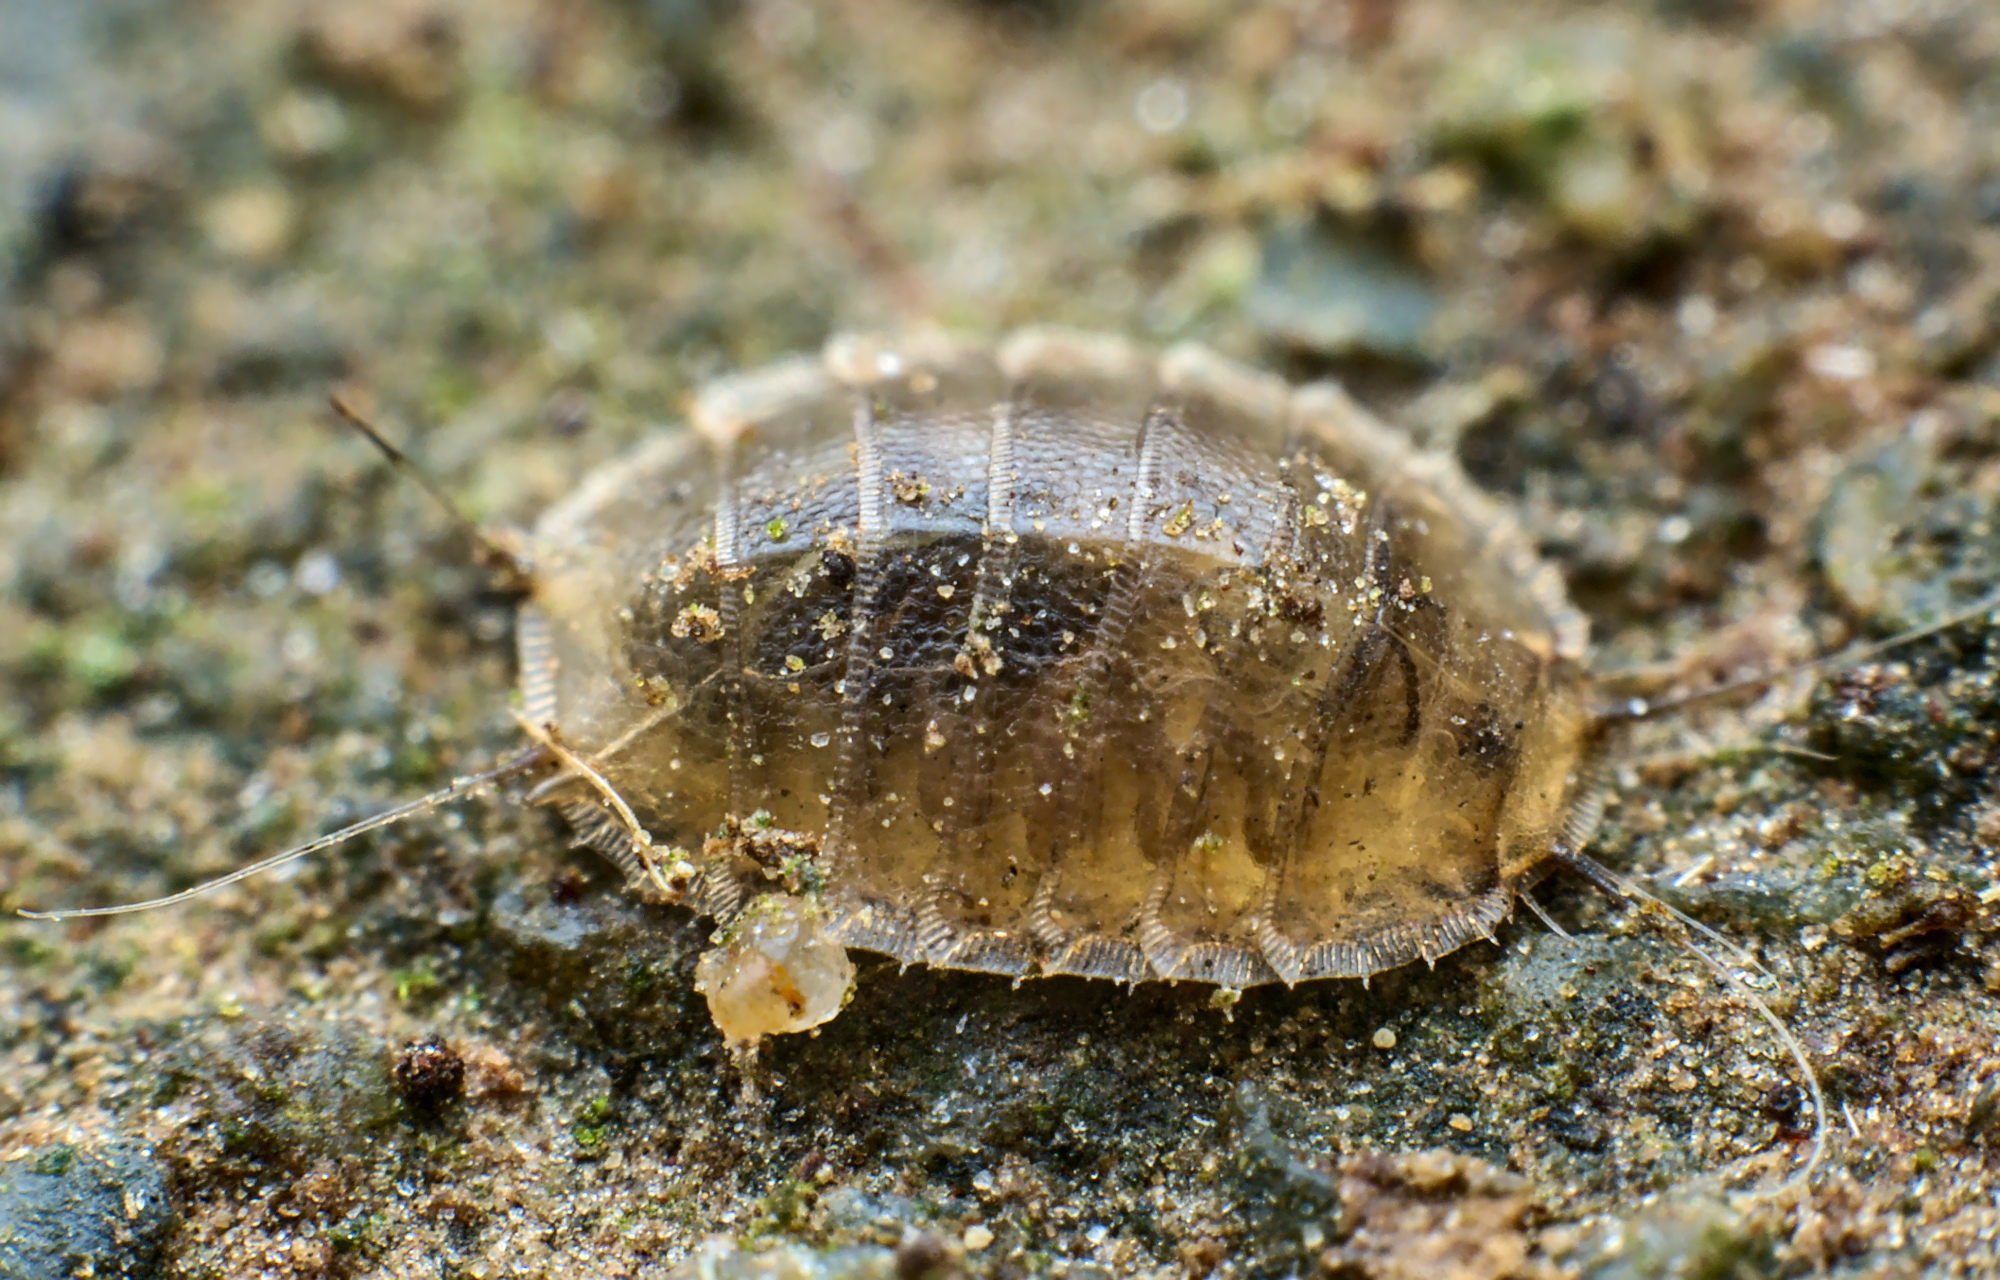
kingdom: Animalia
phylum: Arthropoda
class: Insecta
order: Diptera
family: Lonchopteridae
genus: Lonchoptera
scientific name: Lonchoptera
